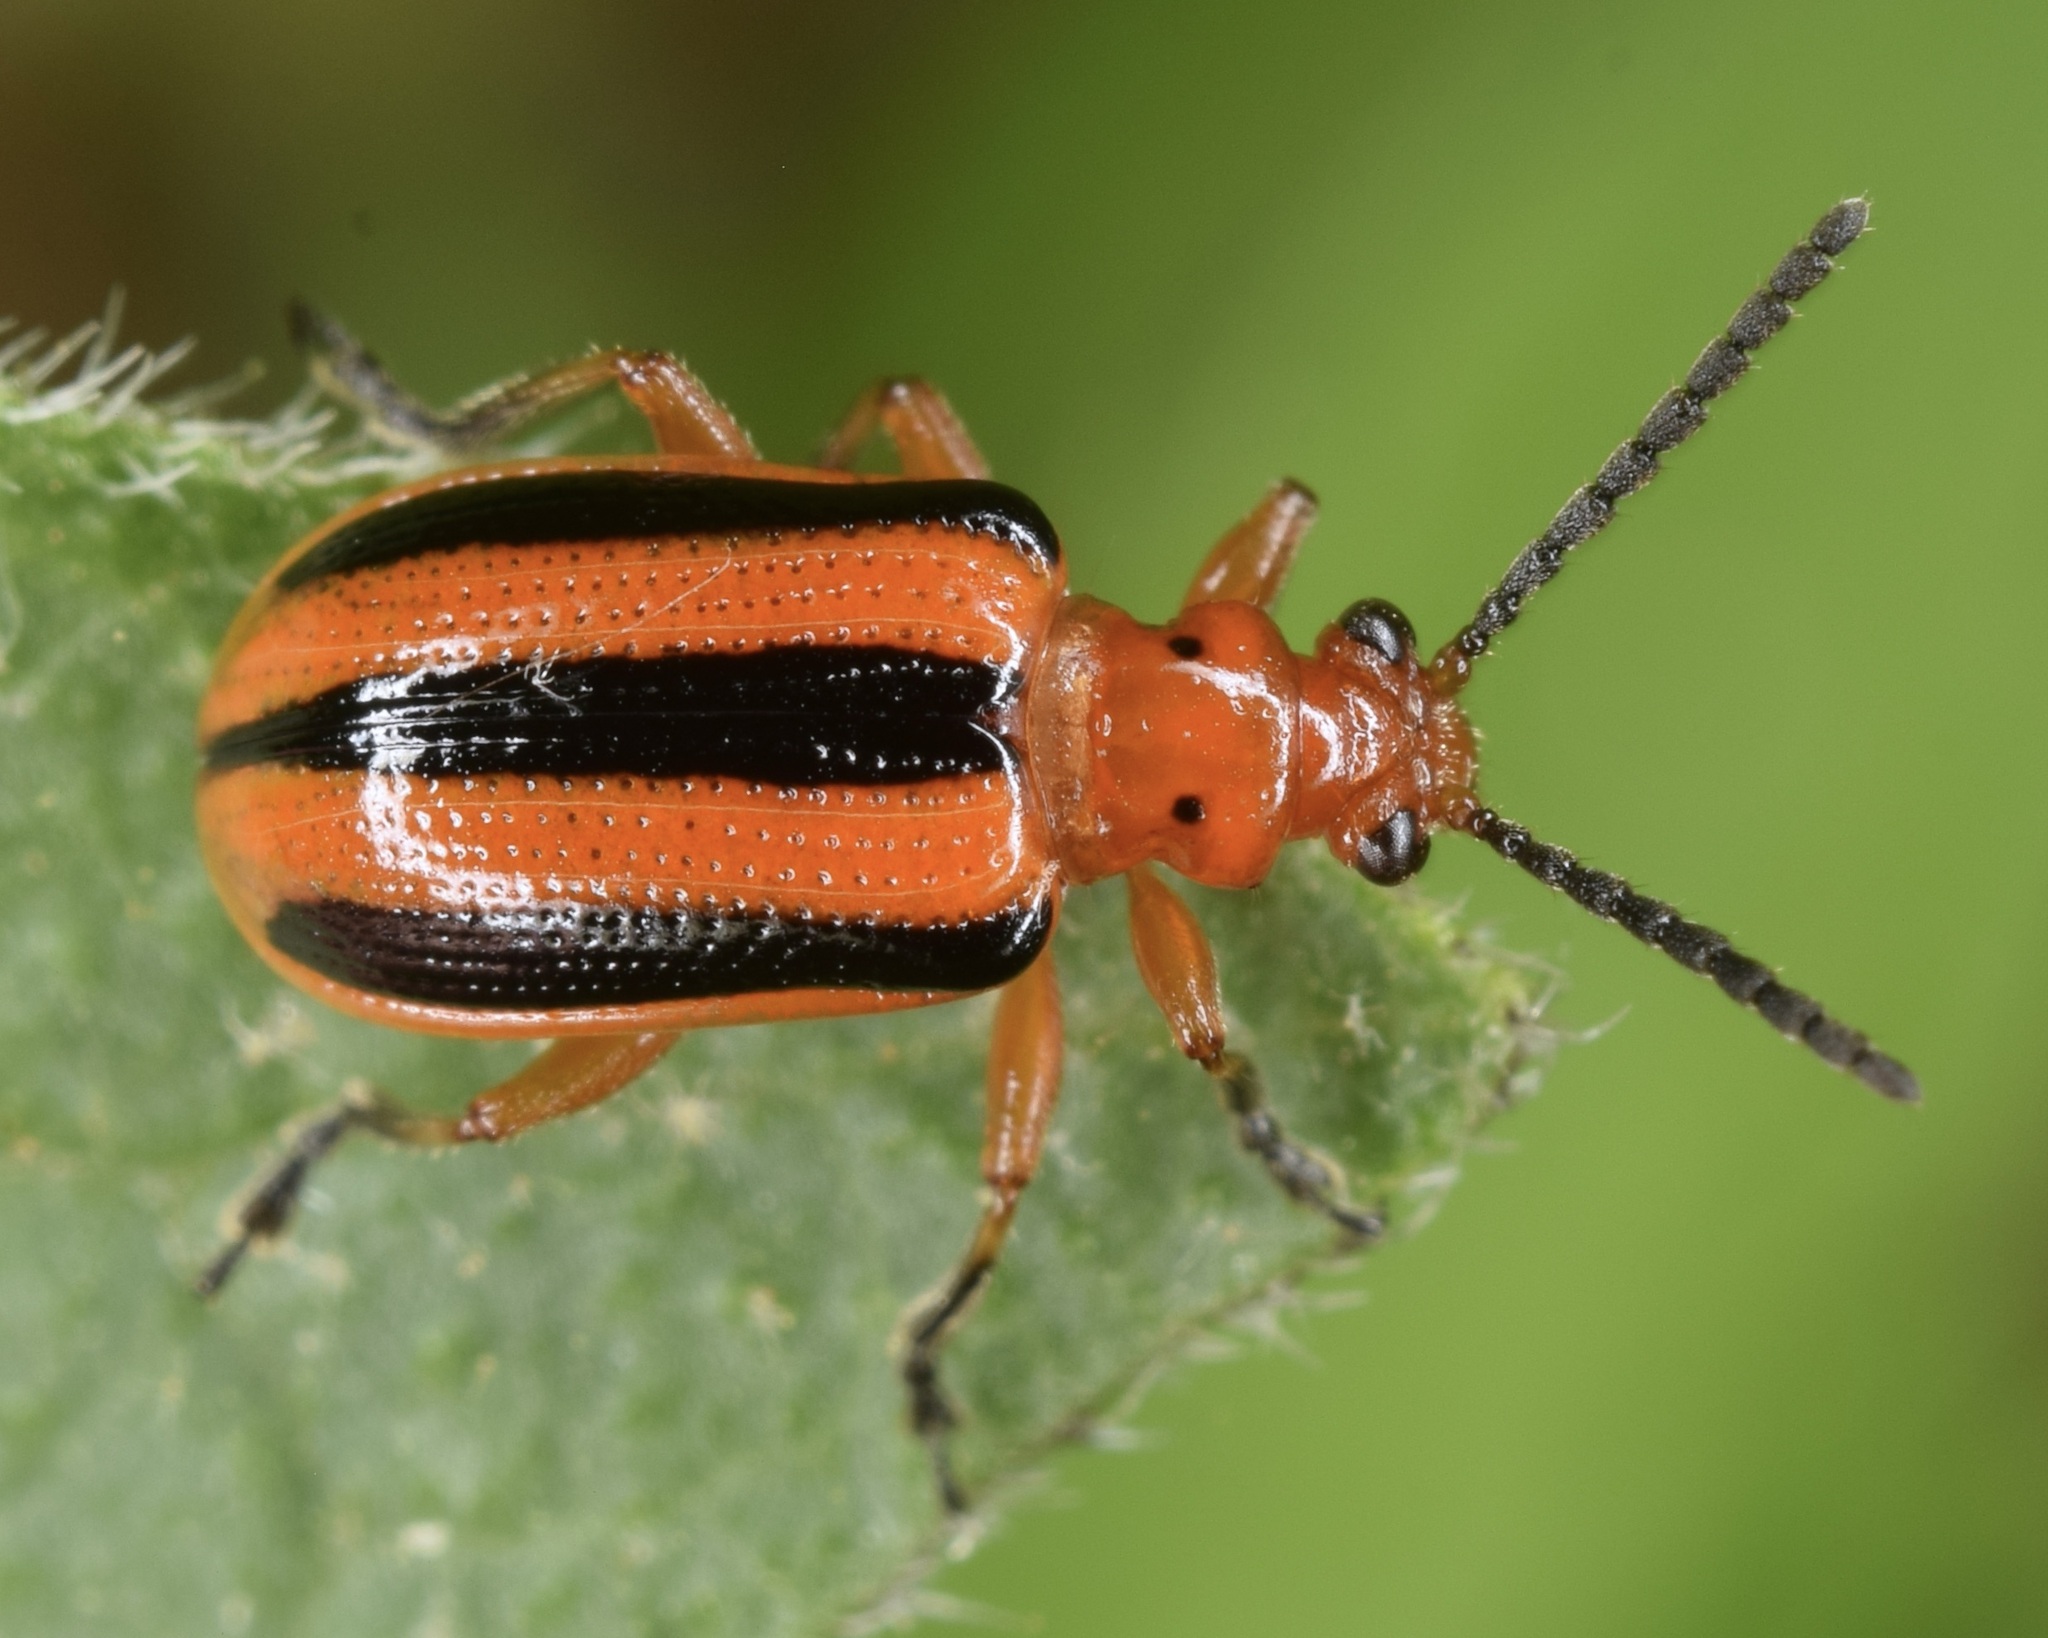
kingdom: Animalia
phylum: Arthropoda
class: Insecta
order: Coleoptera
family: Chrysomelidae
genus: Lema
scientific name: Lema daturaphila
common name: Leaf beetle
